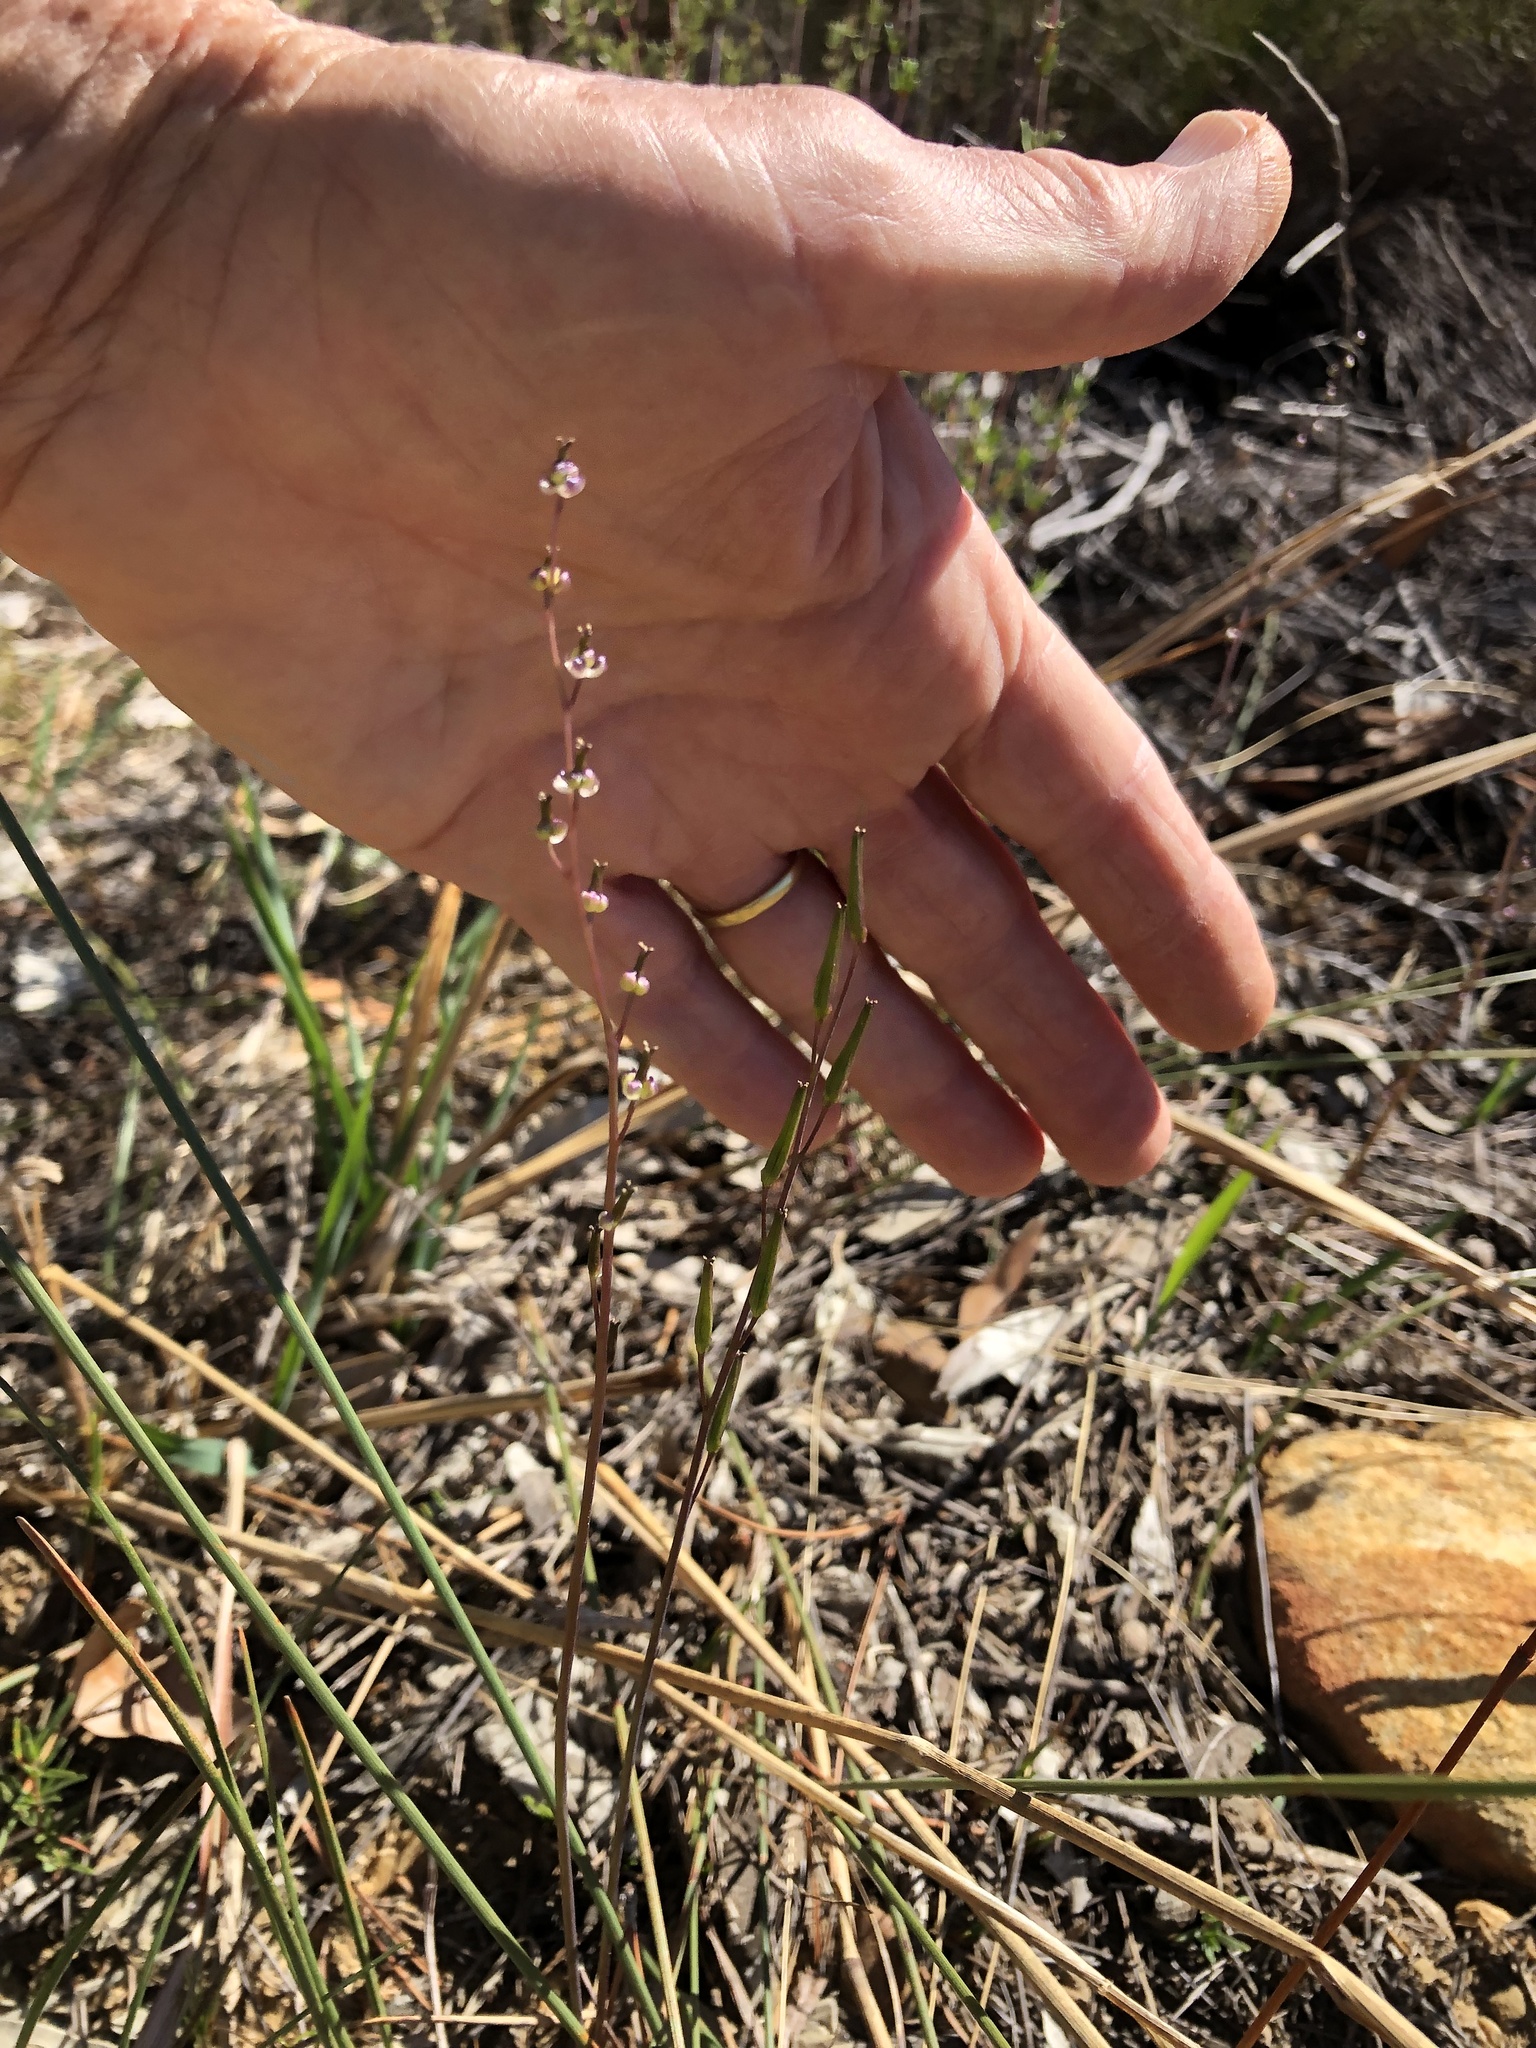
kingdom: Plantae
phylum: Tracheophyta
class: Liliopsida
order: Alismatales
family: Juncaginaceae
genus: Triglochin
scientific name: Triglochin bulbosa
